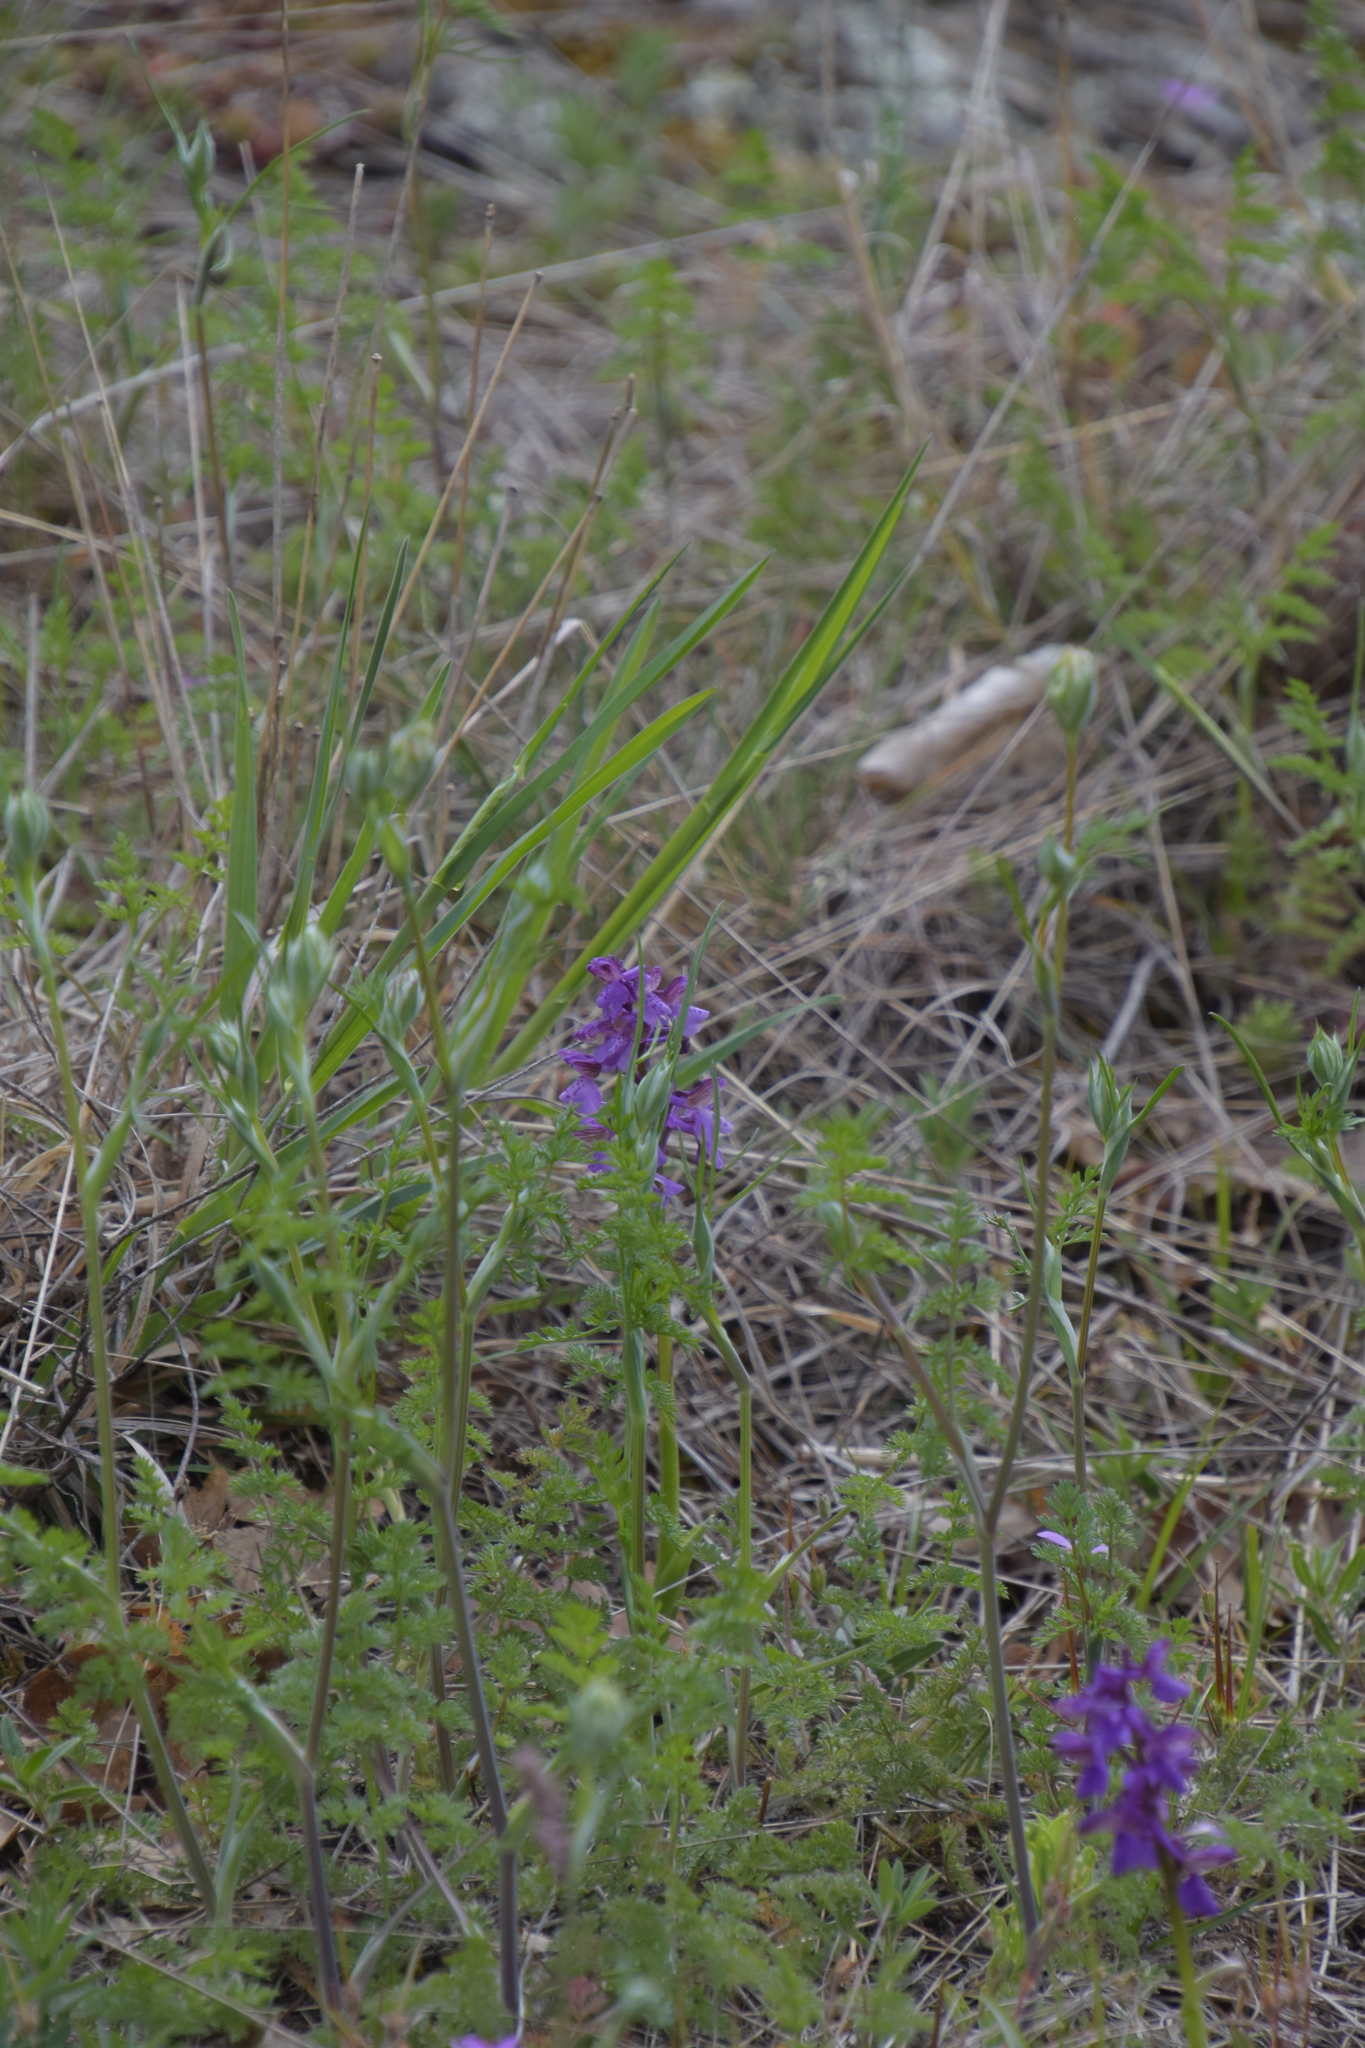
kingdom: Plantae
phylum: Tracheophyta
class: Liliopsida
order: Asparagales
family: Orchidaceae
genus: Anacamptis
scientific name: Anacamptis morio
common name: Green-winged orchid
